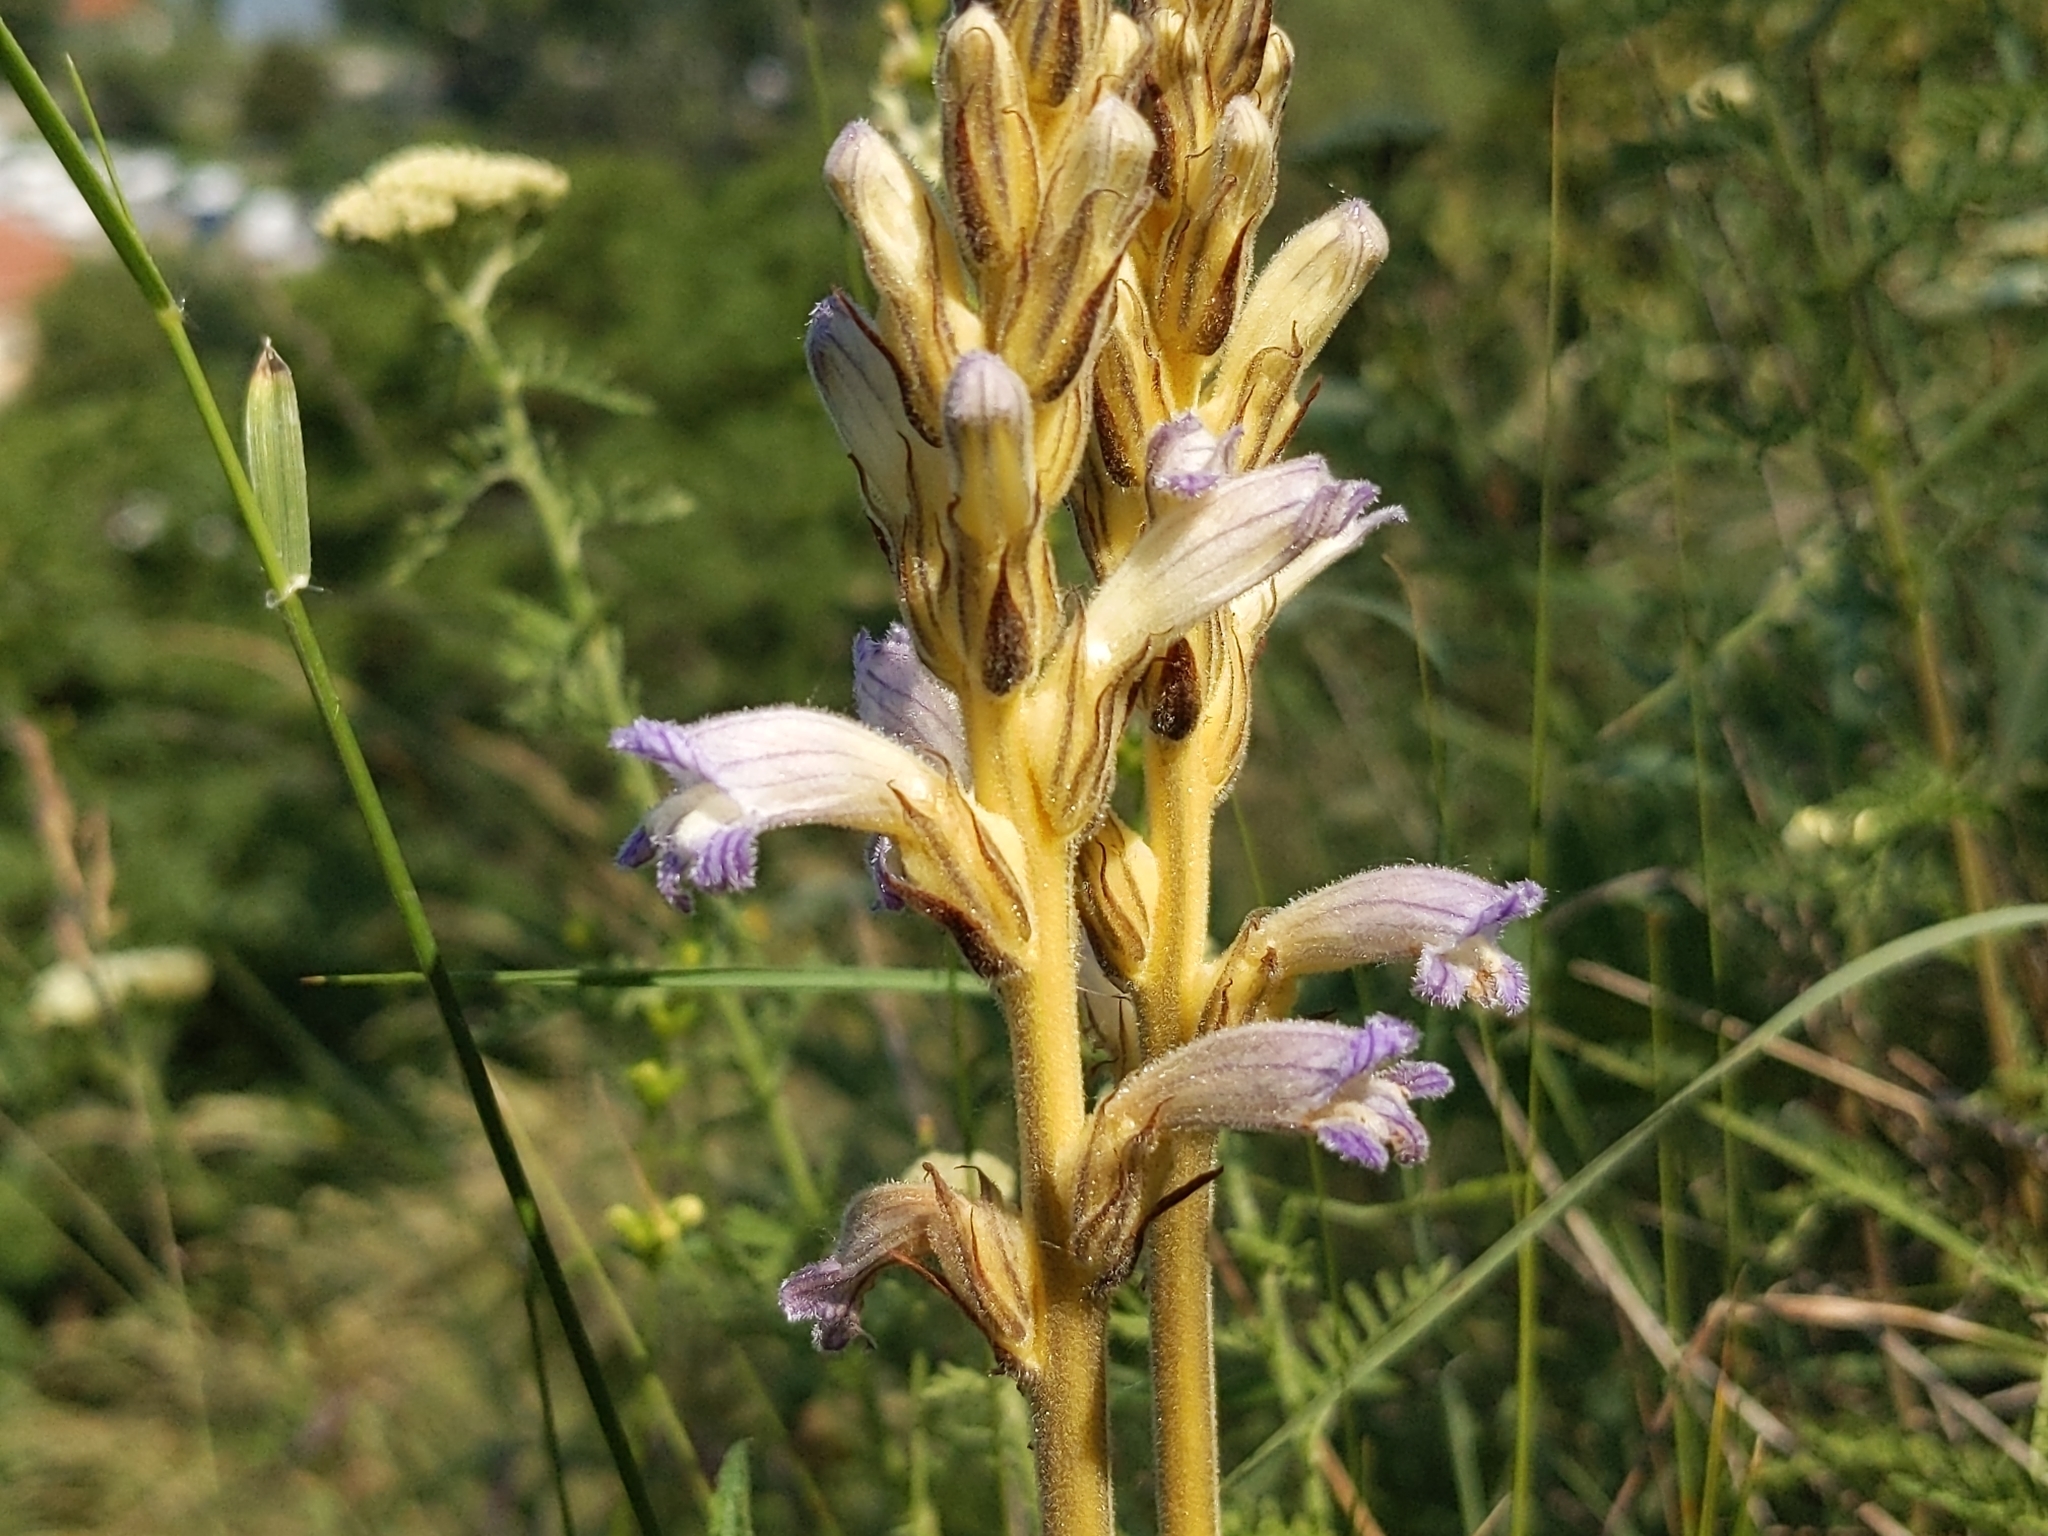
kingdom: Plantae
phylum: Tracheophyta
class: Magnoliopsida
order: Lamiales
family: Orobanchaceae
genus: Phelipanche
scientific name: Phelipanche purpurea
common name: Purple broomrape
